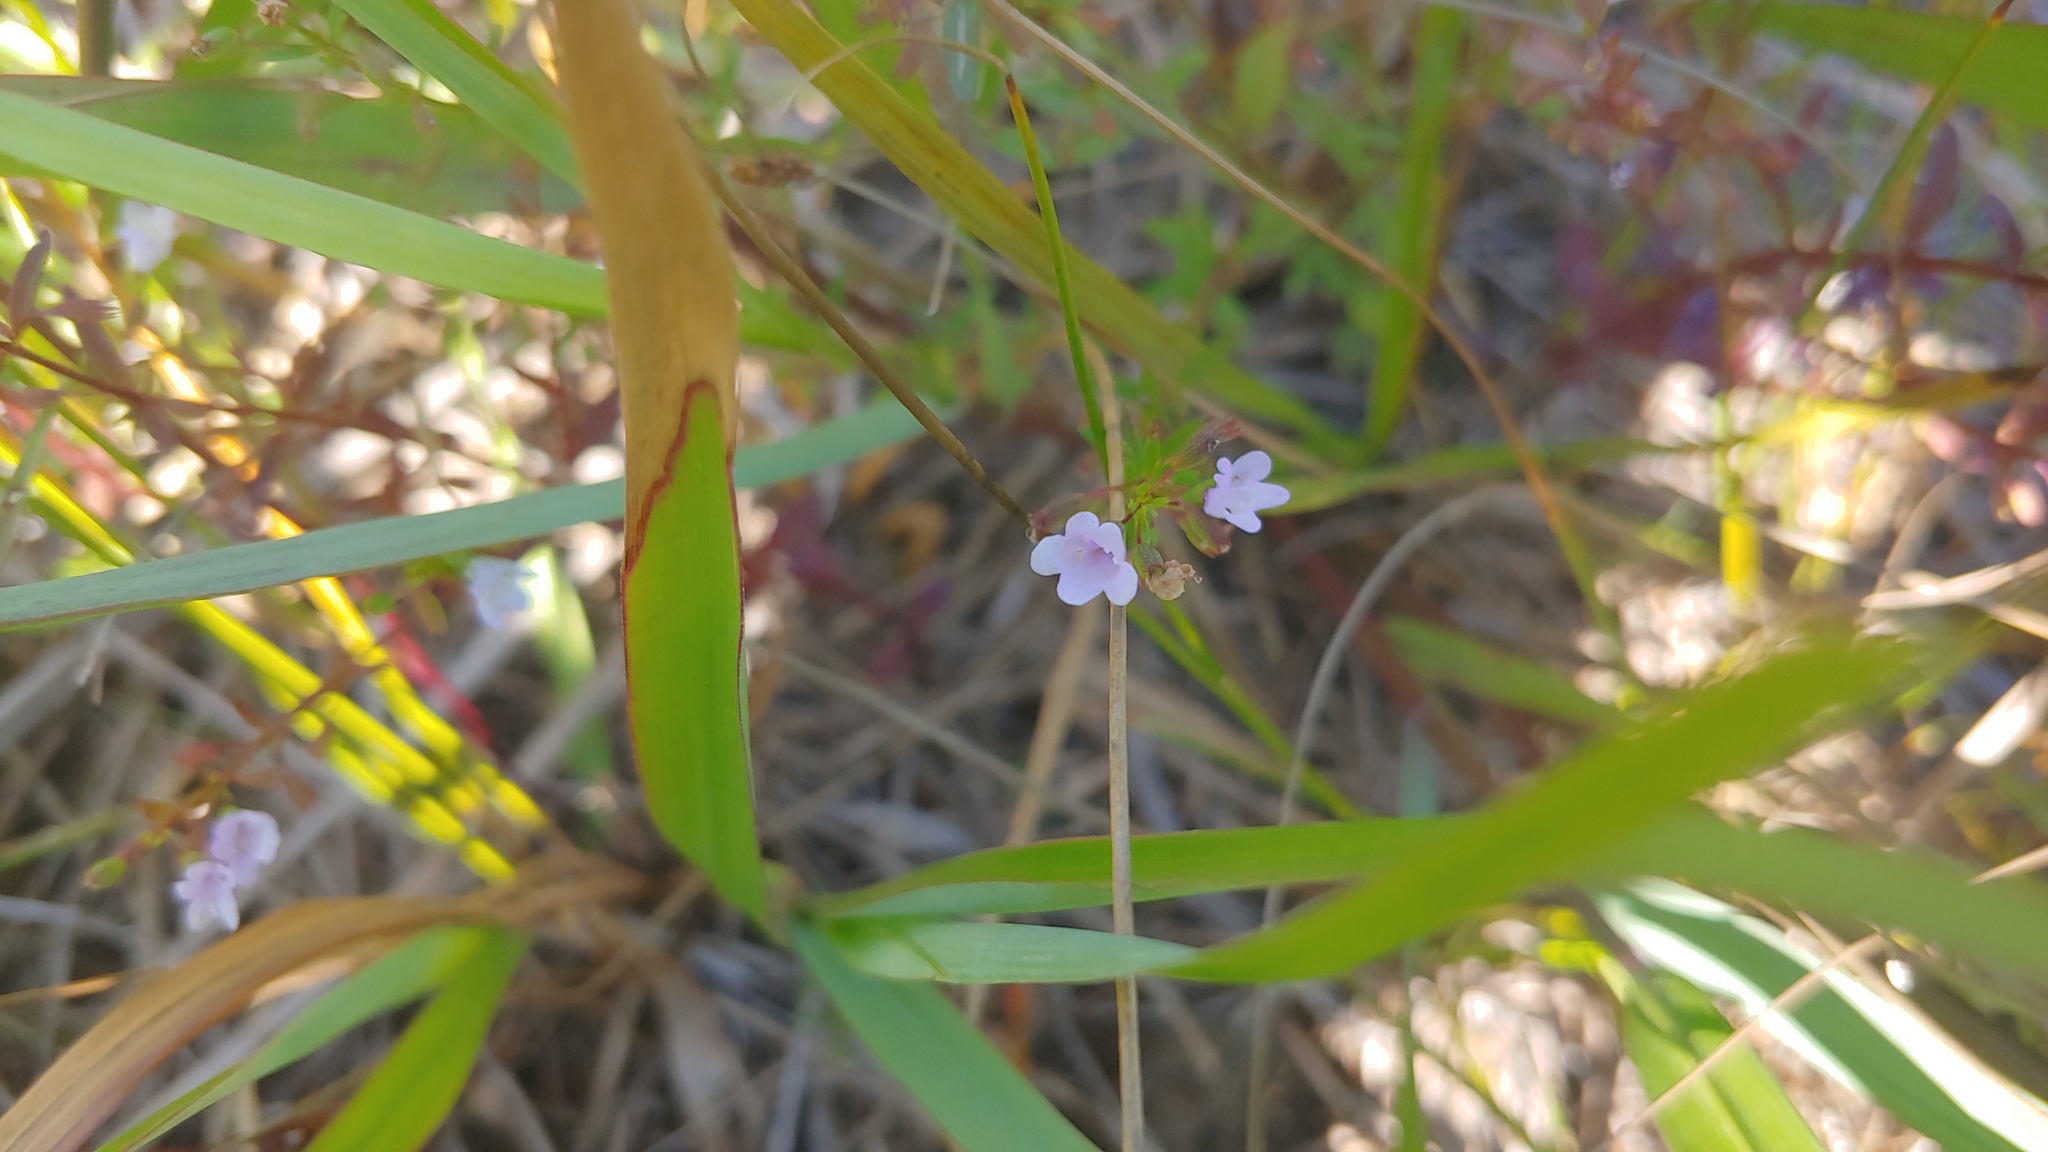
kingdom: Plantae
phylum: Tracheophyta
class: Magnoliopsida
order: Lamiales
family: Lamiaceae
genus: Clinopodium
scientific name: Clinopodium arkansanum
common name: Limestone calamint
